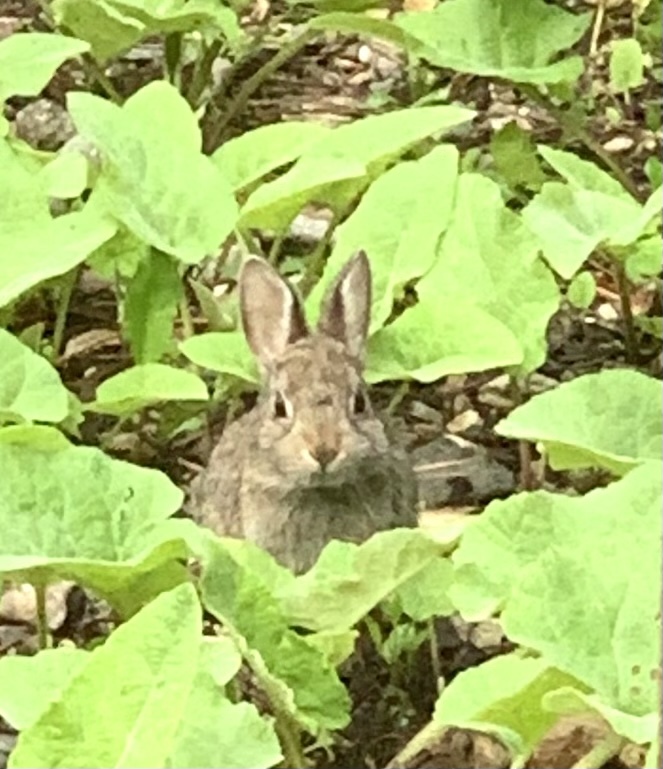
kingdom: Animalia
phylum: Chordata
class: Mammalia
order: Lagomorpha
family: Leporidae
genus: Sylvilagus
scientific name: Sylvilagus nuttallii
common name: Mountain cottontail
